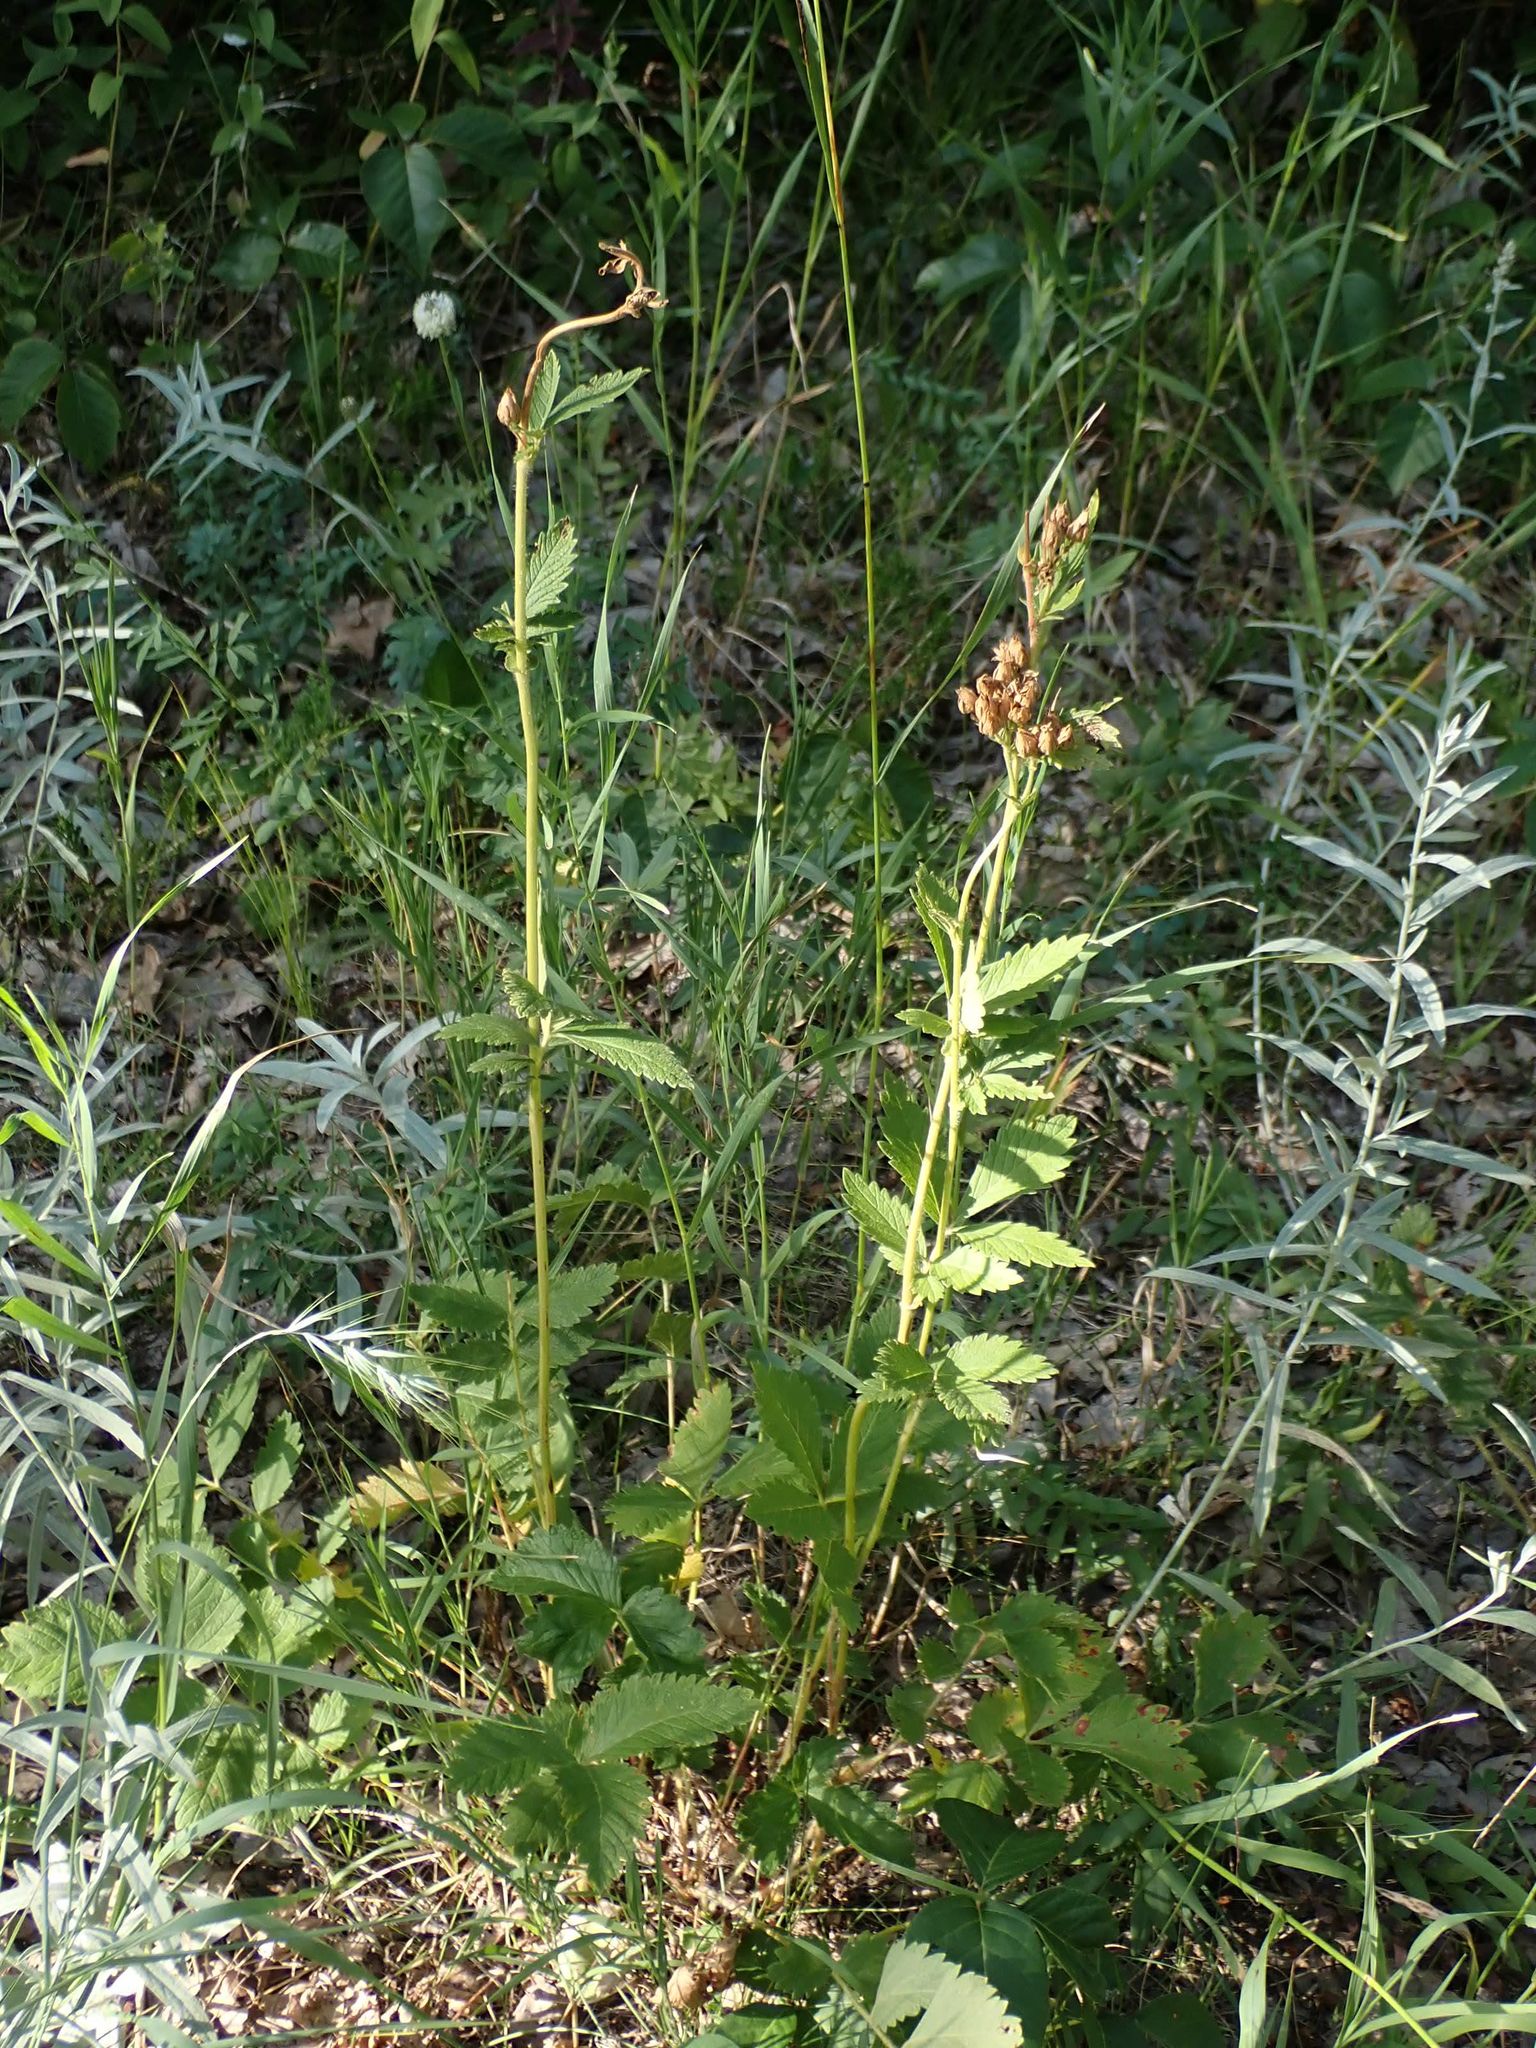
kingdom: Plantae
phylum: Tracheophyta
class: Magnoliopsida
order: Rosales
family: Rosaceae
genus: Drymocallis
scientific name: Drymocallis arguta
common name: Tall cinquefoil
